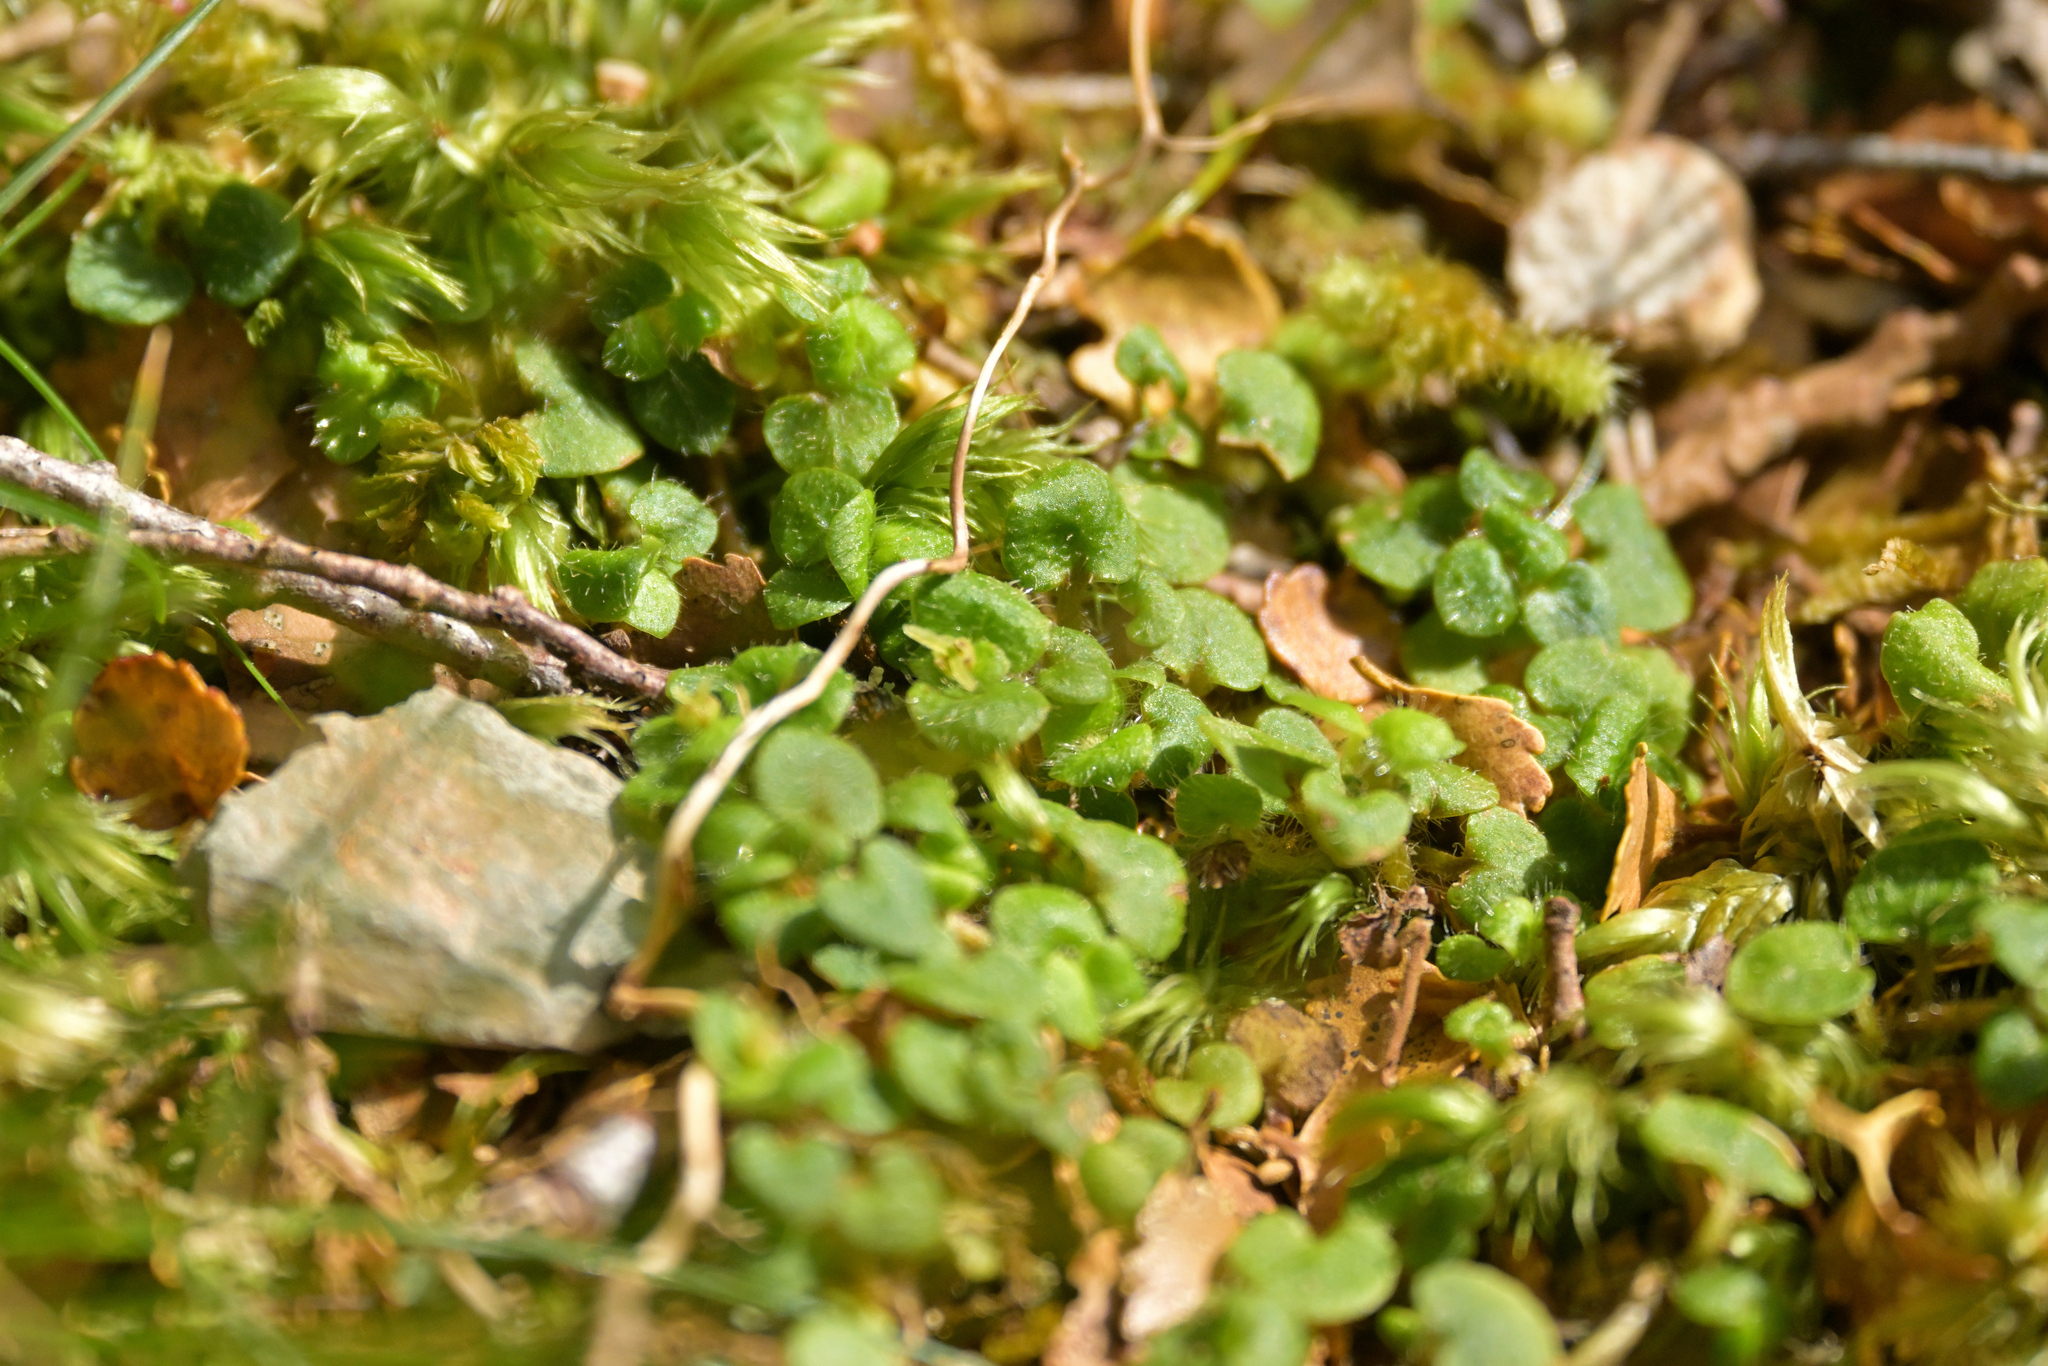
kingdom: Plantae
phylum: Tracheophyta
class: Magnoliopsida
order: Gentianales
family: Rubiaceae
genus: Nertera
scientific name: Nertera villosa
